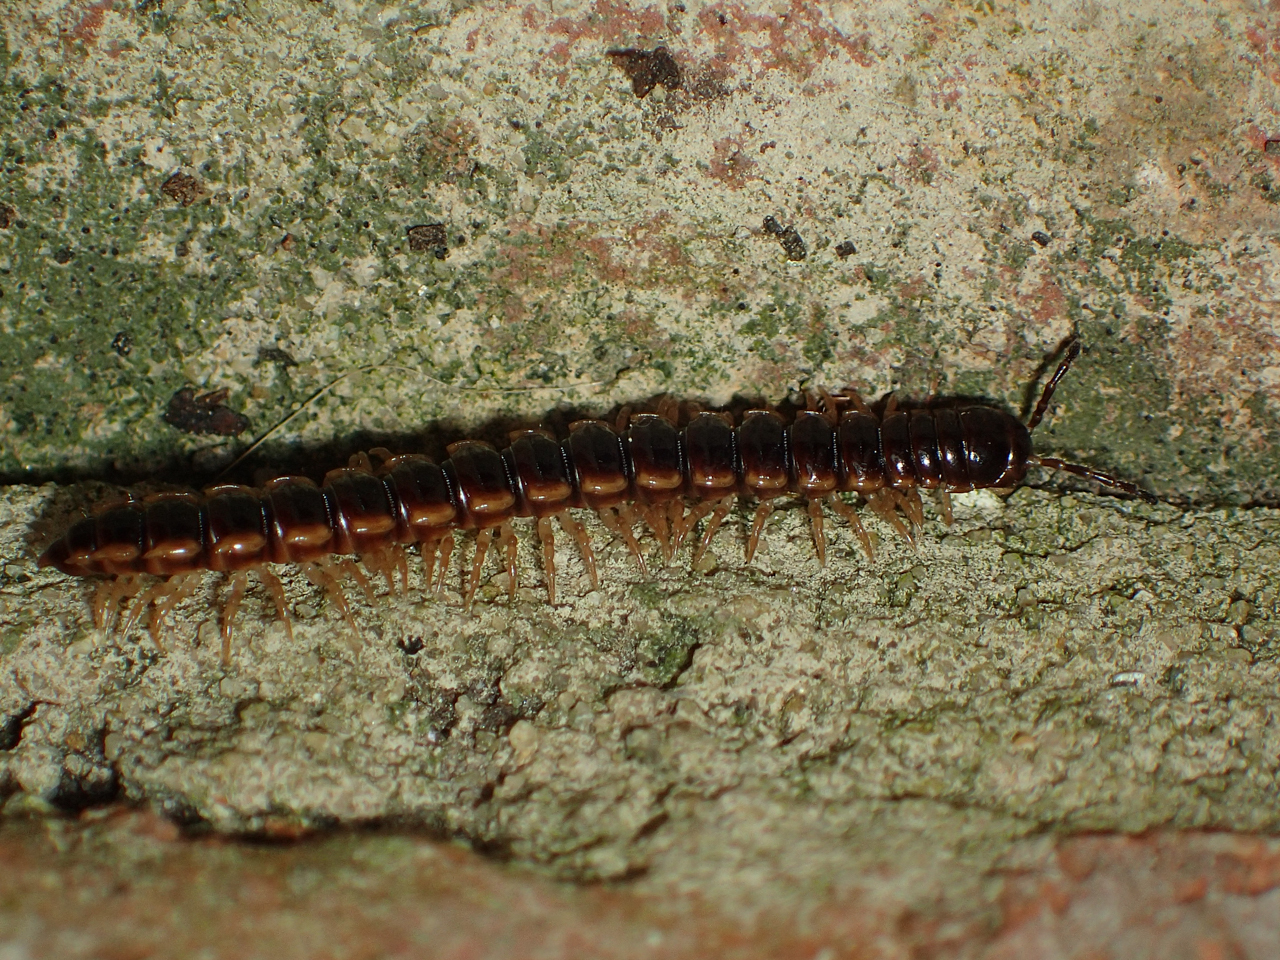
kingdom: Animalia
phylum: Arthropoda
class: Diplopoda
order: Polydesmida
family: Paradoxosomatidae
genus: Oxidus
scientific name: Oxidus gracilis
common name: Greenhouse millipede
